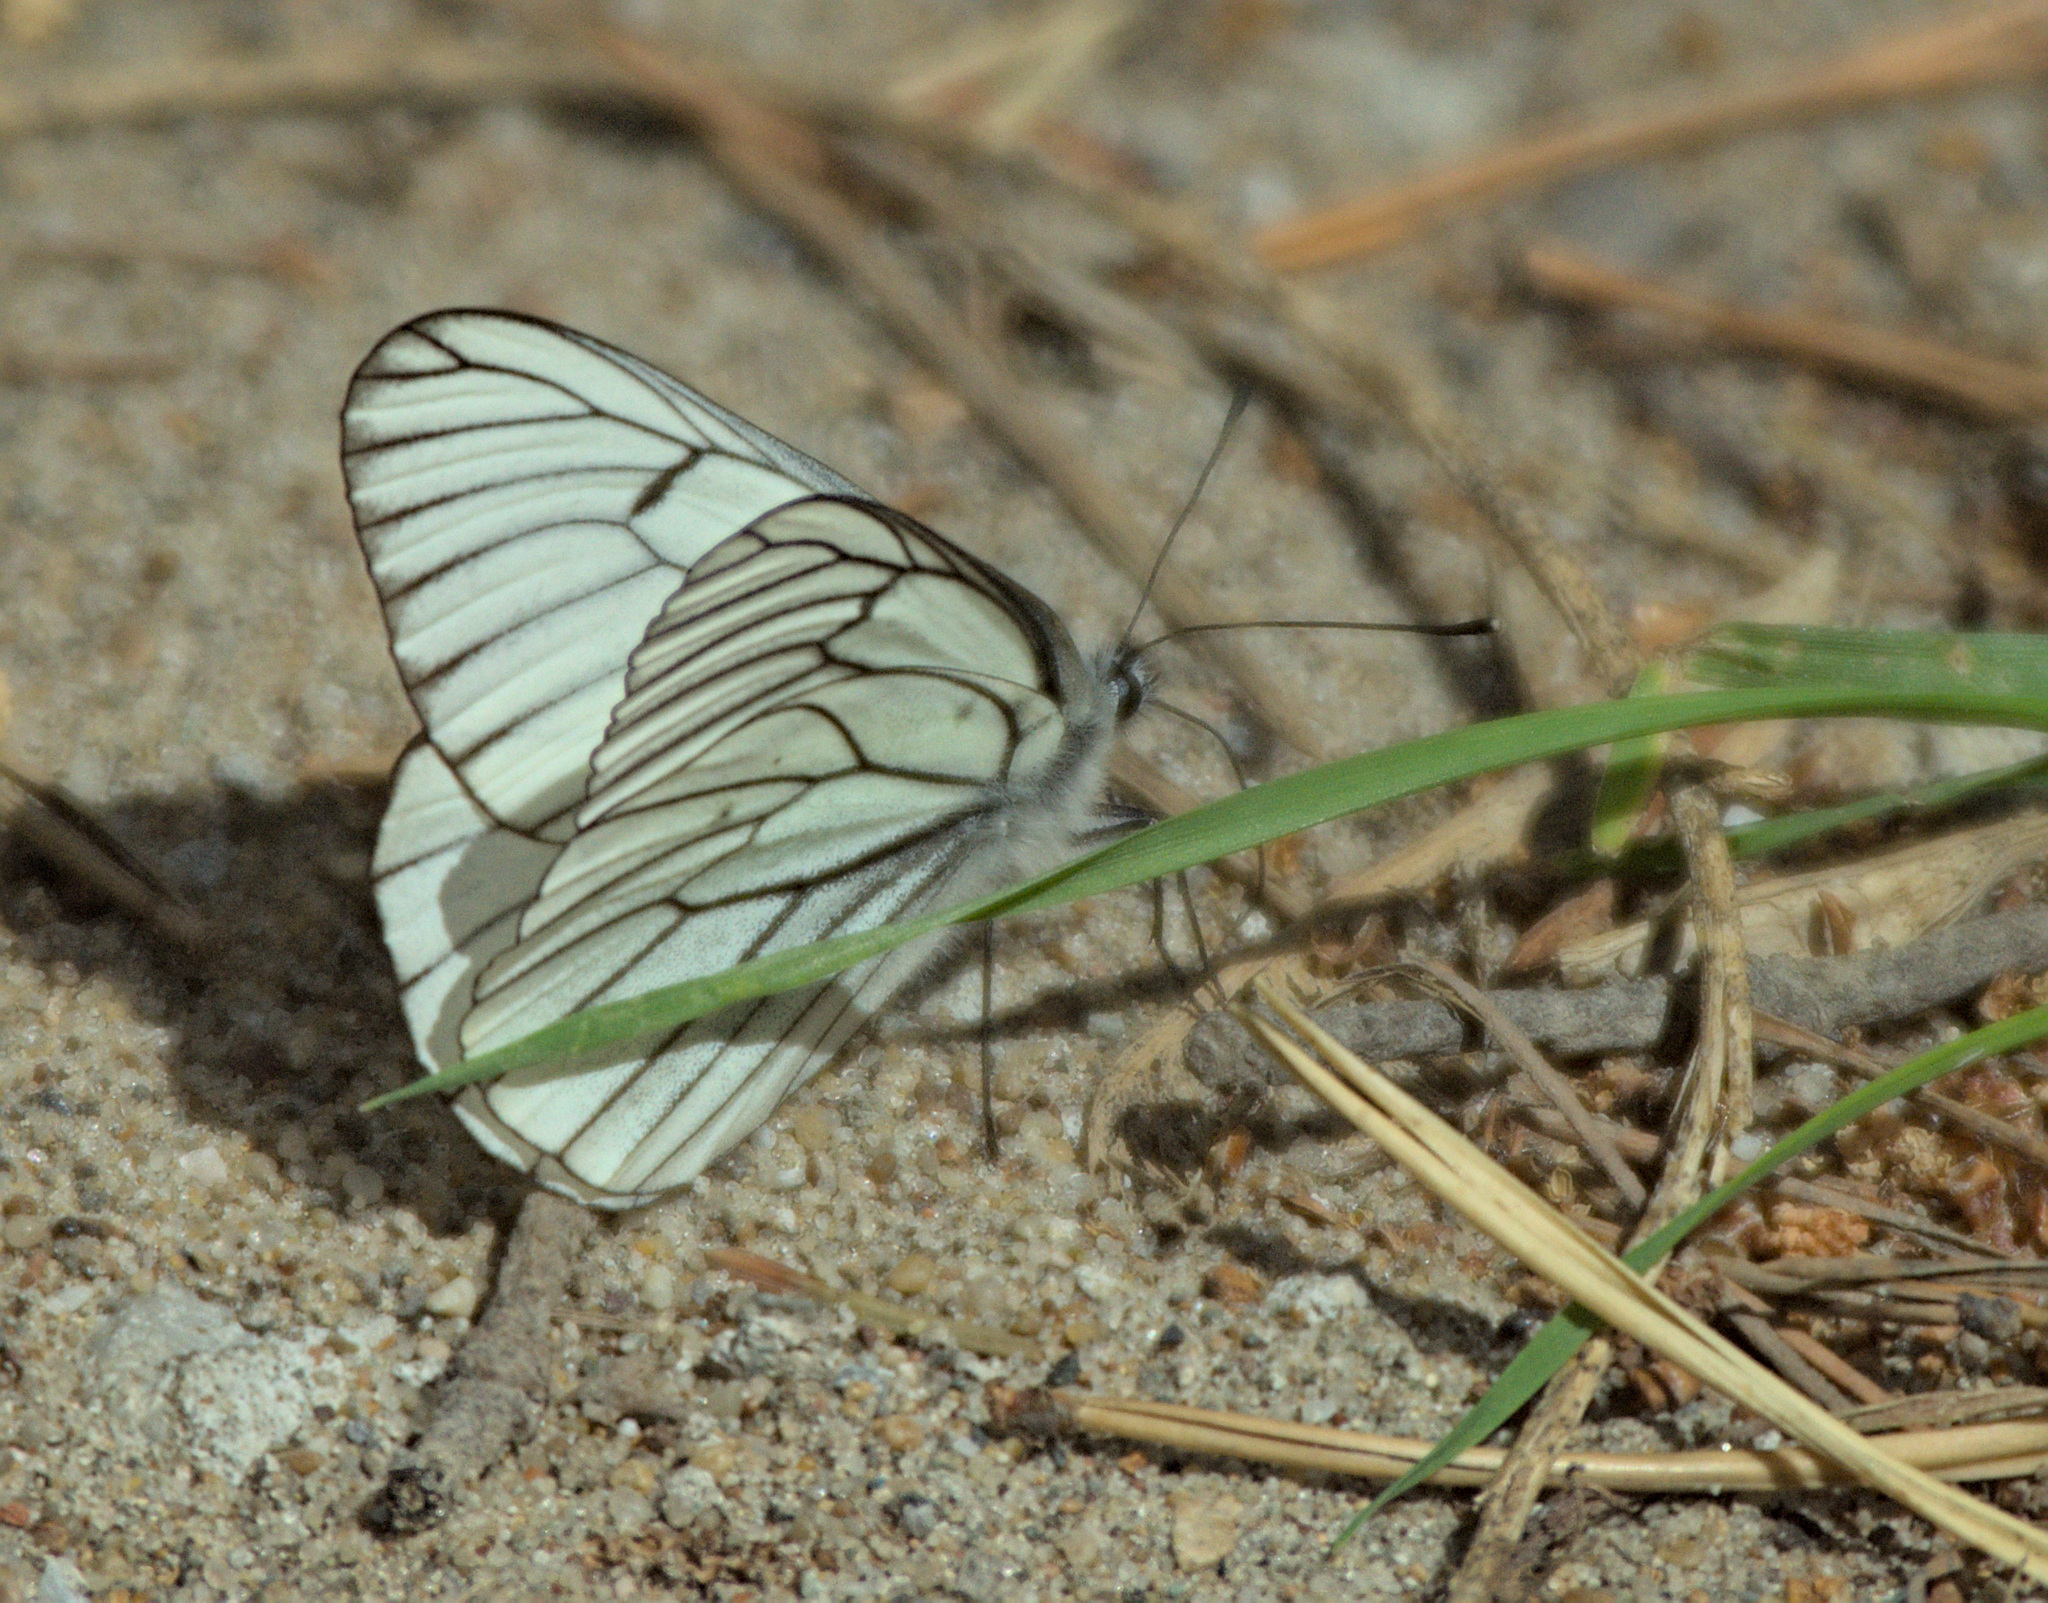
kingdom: Animalia
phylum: Arthropoda
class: Insecta
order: Lepidoptera
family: Pieridae
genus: Aporia
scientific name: Aporia crataegi
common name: Black-veined white
